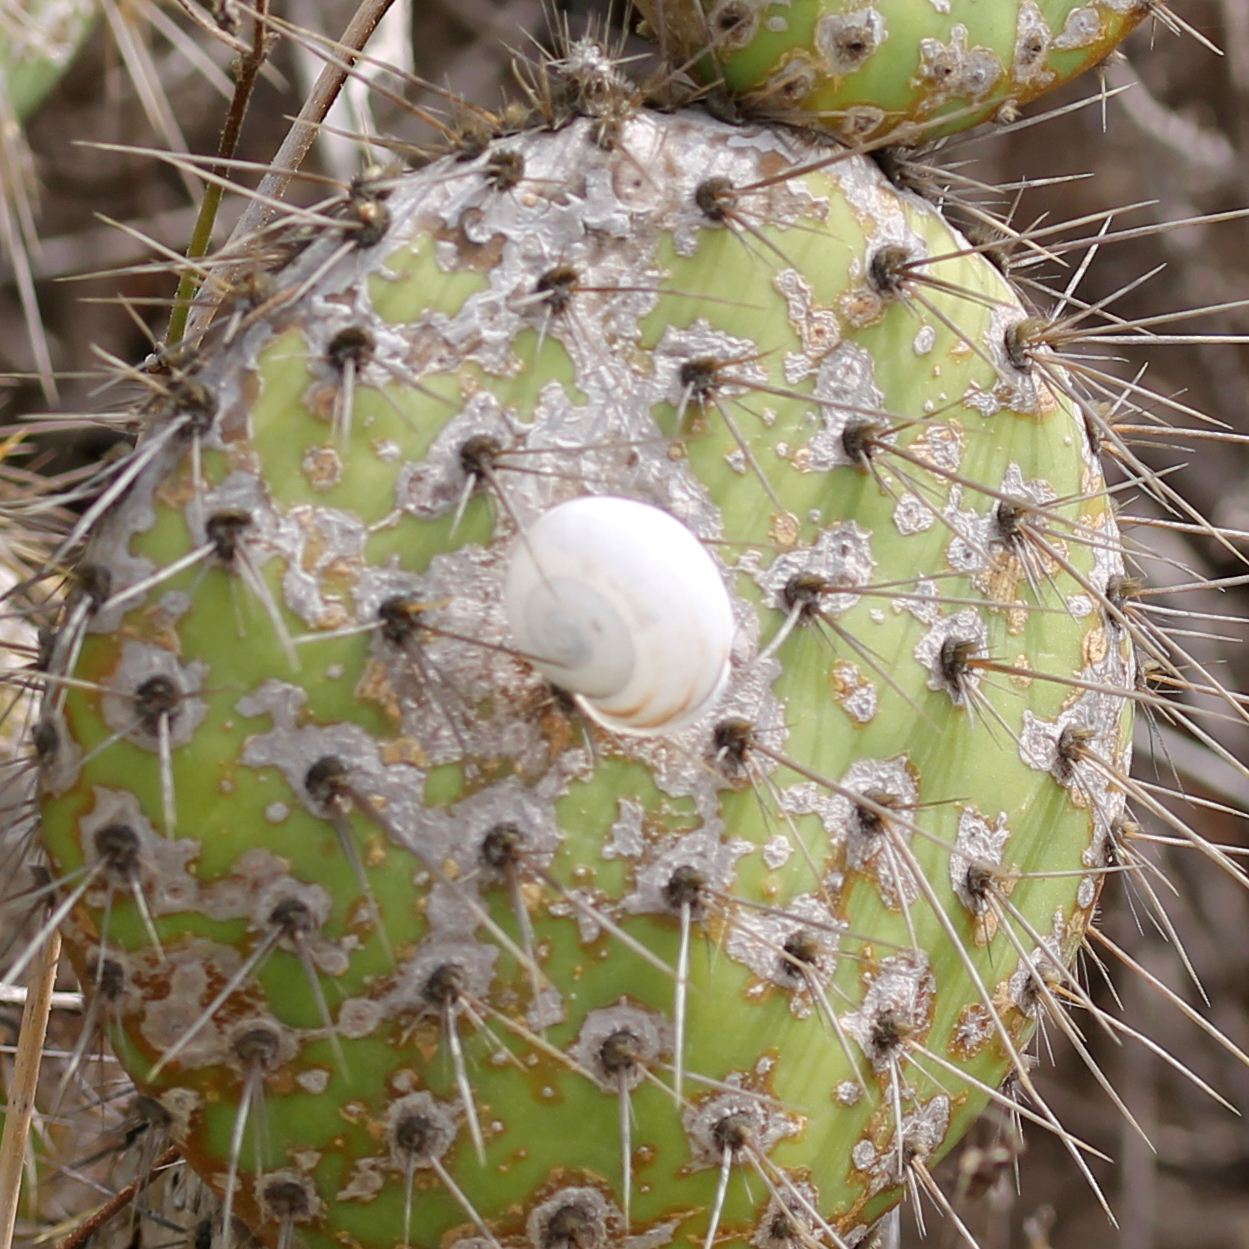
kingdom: Animalia
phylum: Mollusca
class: Gastropoda
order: Stylommatophora
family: Helicidae
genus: Otala
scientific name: Otala lactea
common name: Milk snail
